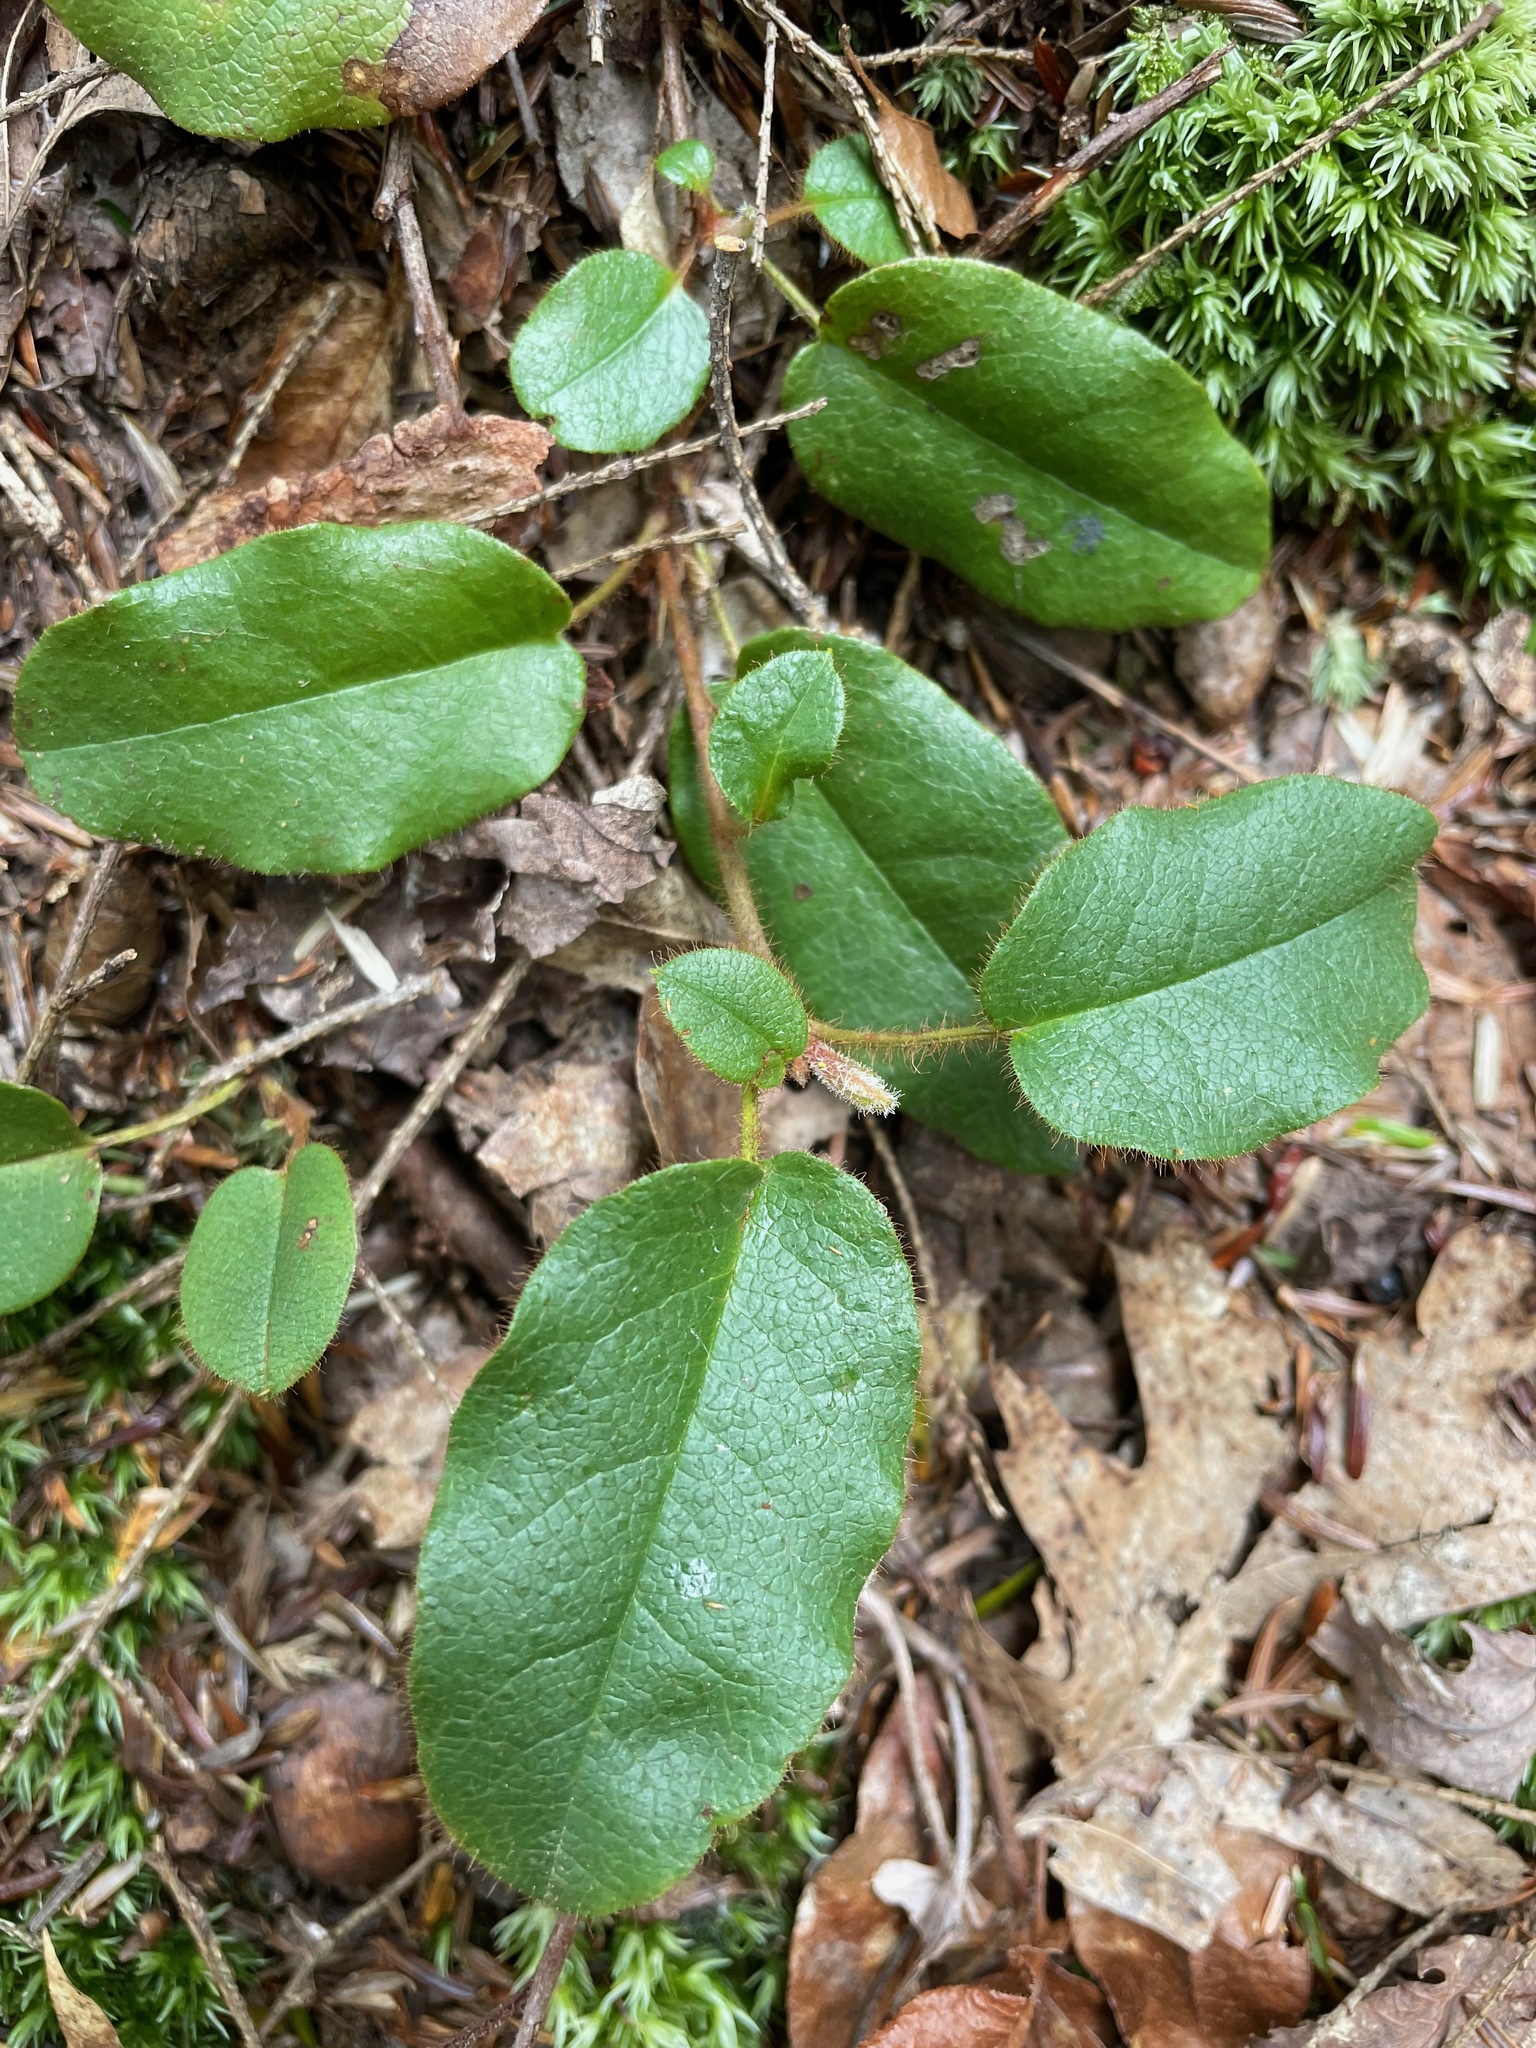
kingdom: Plantae
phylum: Tracheophyta
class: Magnoliopsida
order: Ericales
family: Ericaceae
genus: Epigaea
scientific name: Epigaea repens
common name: Gravelroot
